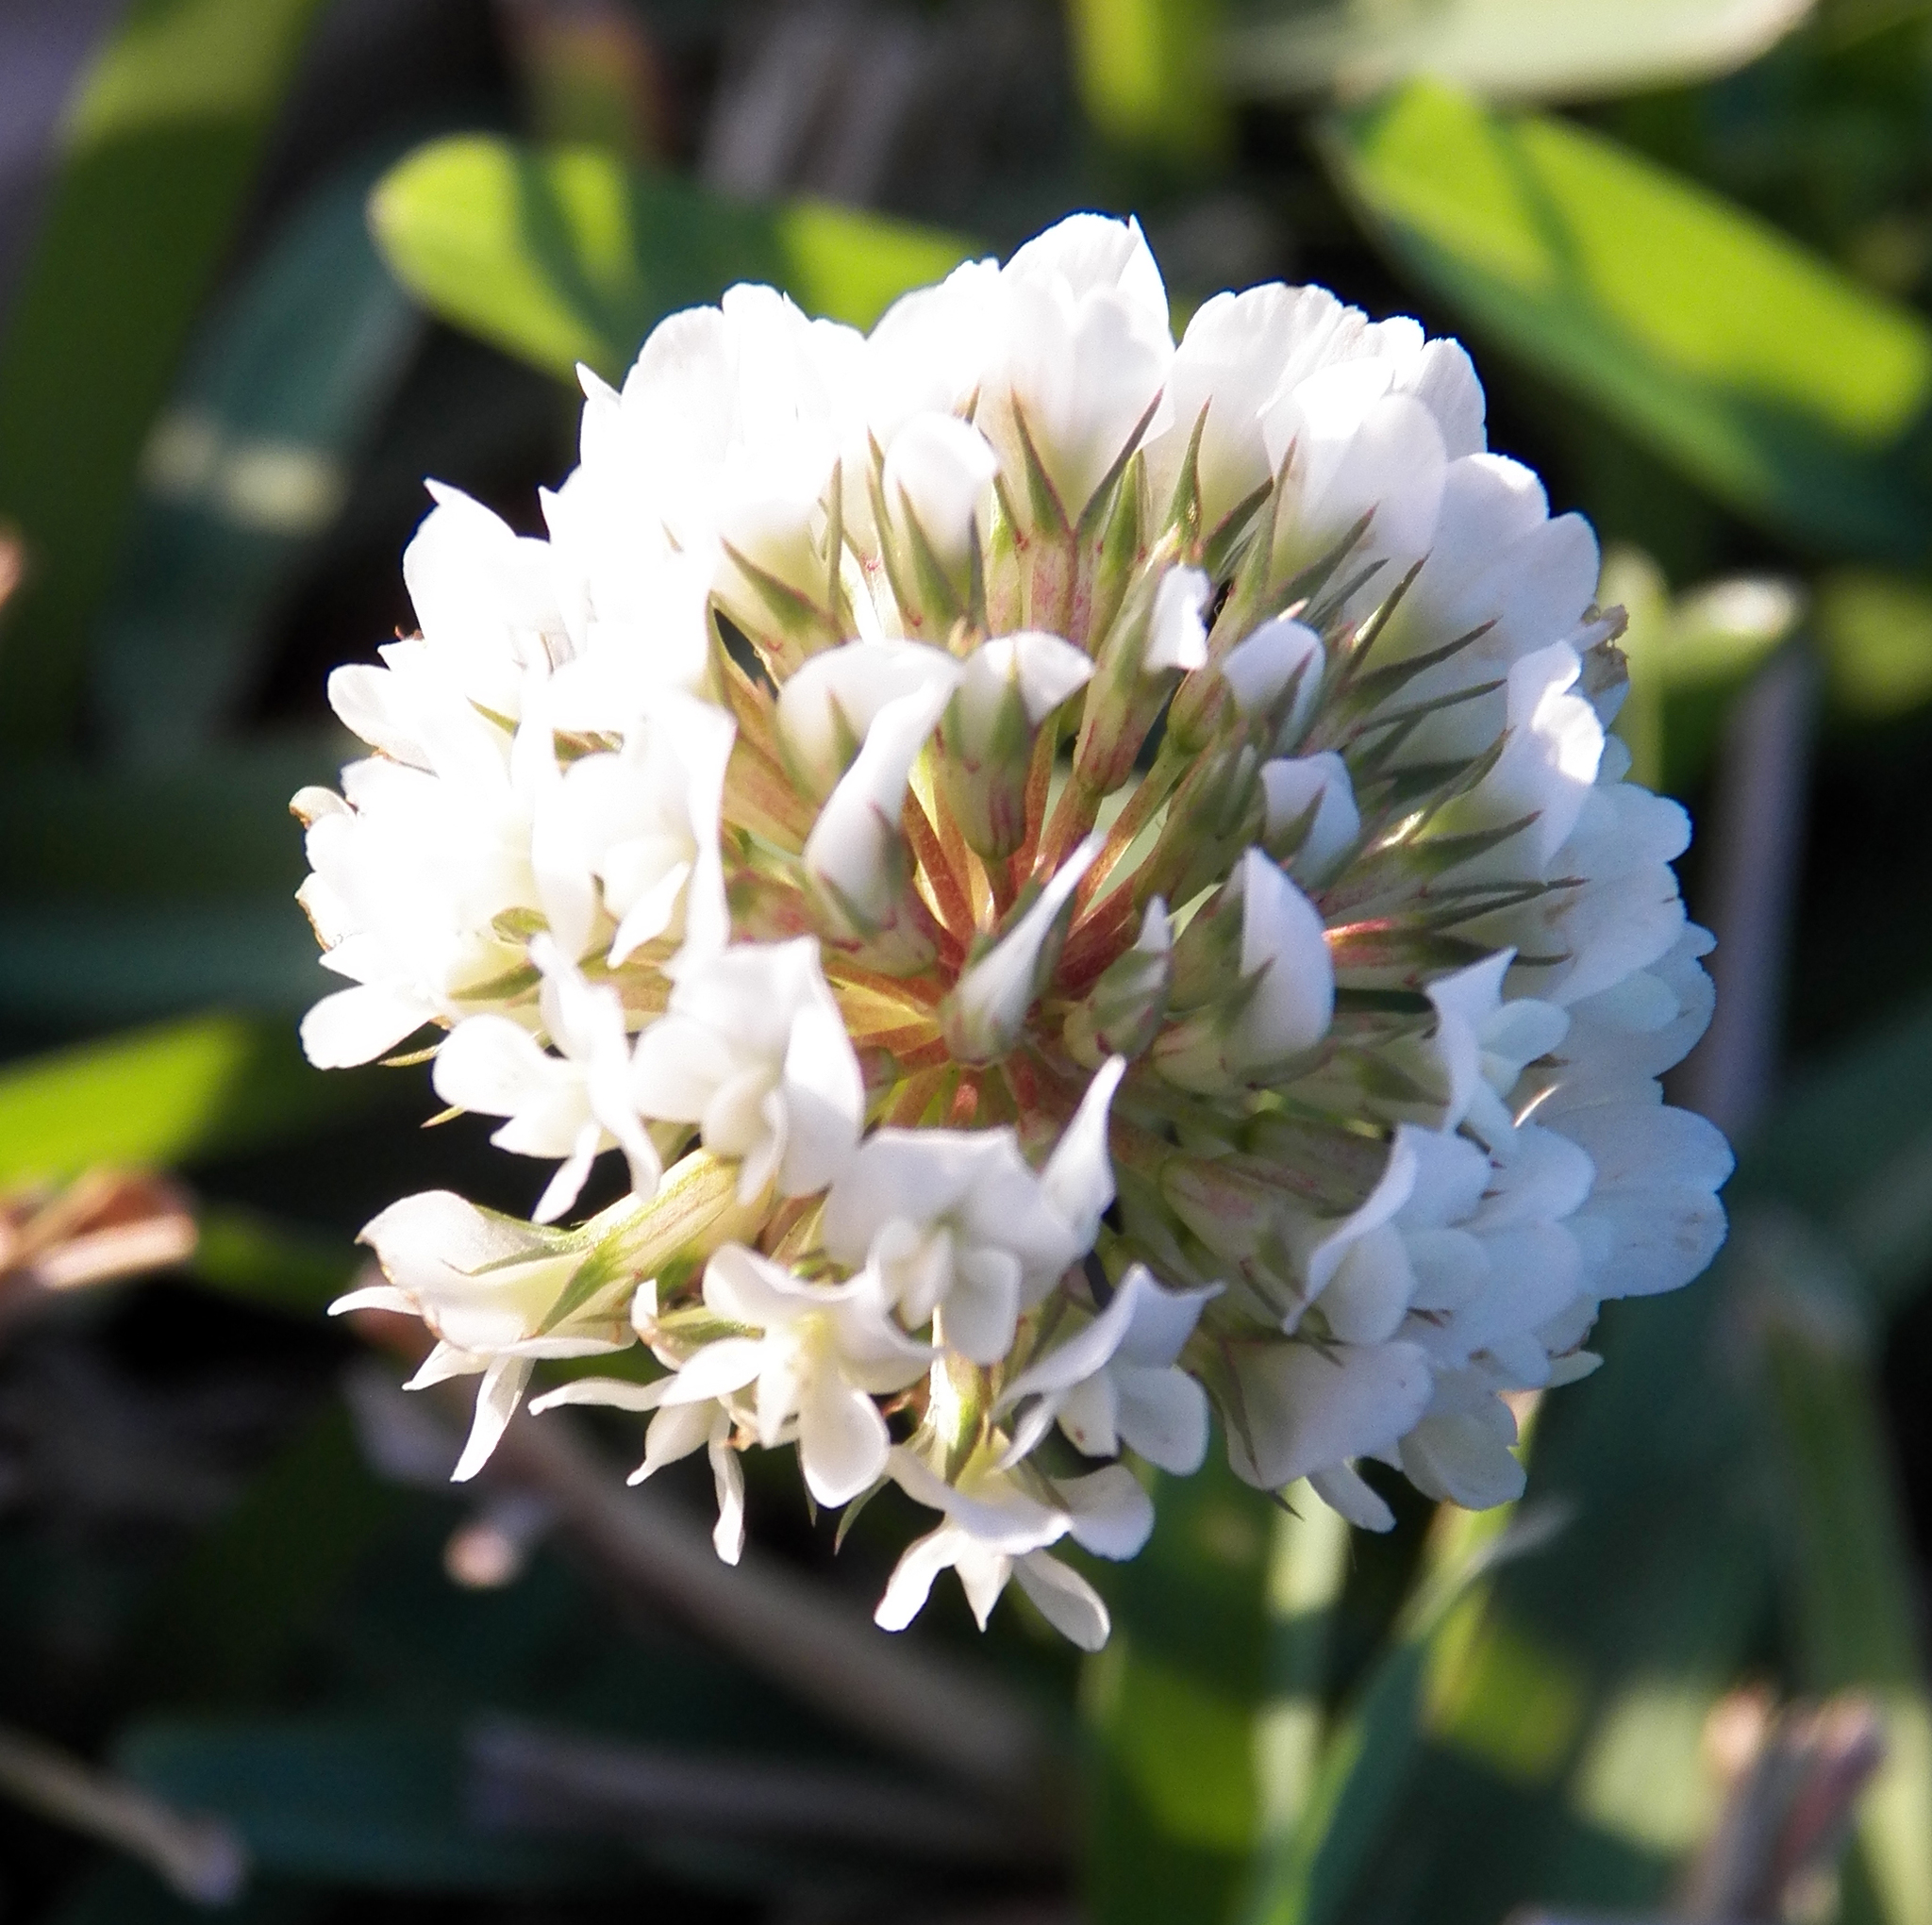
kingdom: Plantae
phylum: Tracheophyta
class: Magnoliopsida
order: Fabales
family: Fabaceae
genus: Trifolium
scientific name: Trifolium repens
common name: White clover
